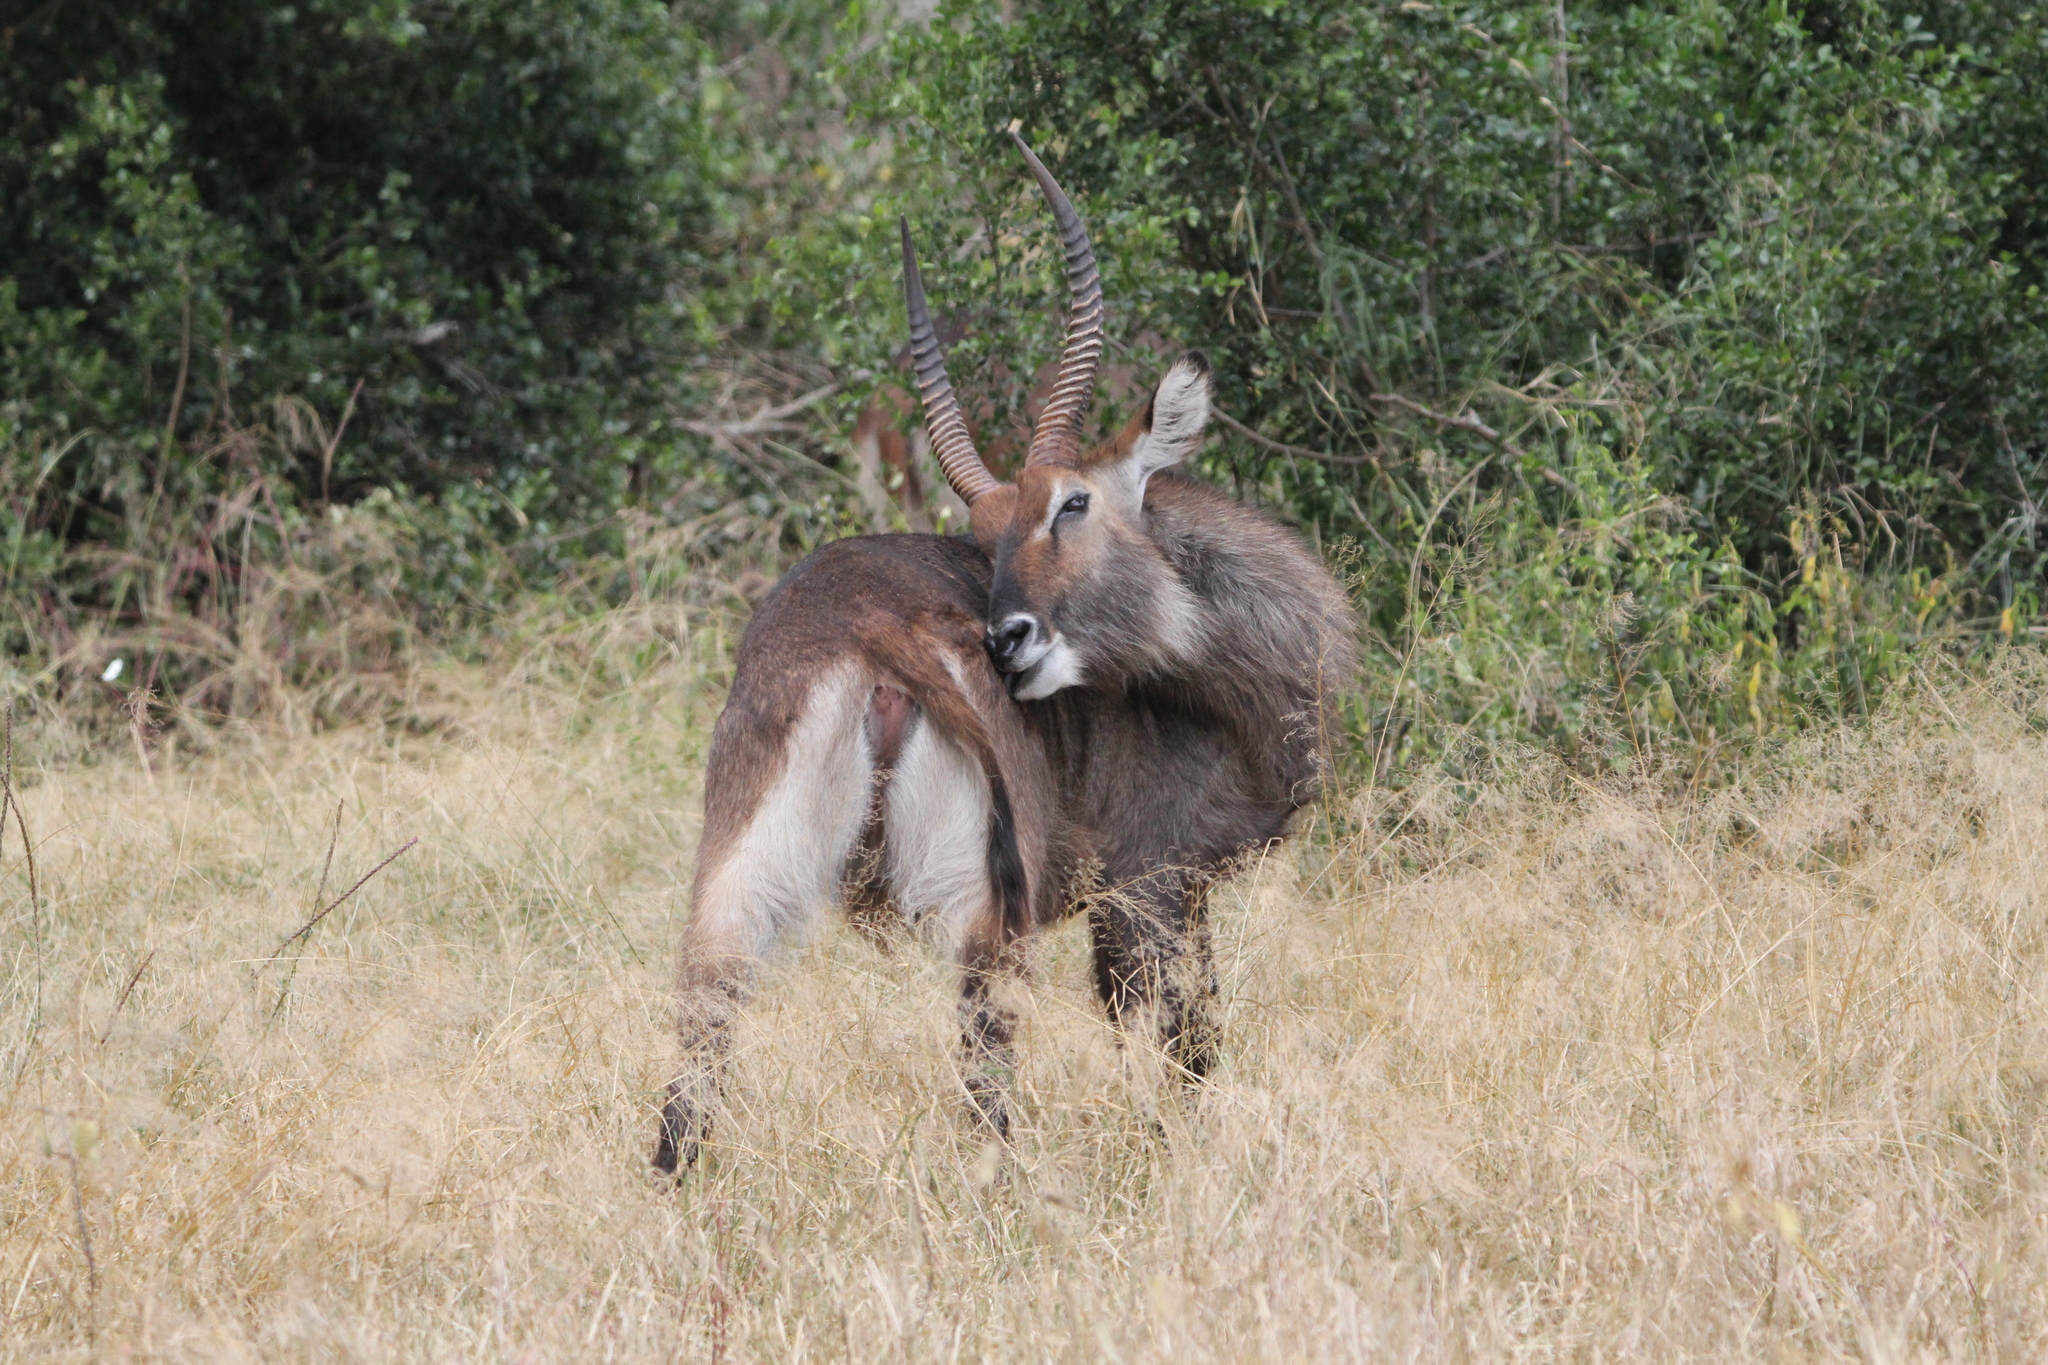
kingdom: Animalia
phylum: Chordata
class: Mammalia
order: Artiodactyla
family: Bovidae
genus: Kobus
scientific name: Kobus ellipsiprymnus
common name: Waterbuck
